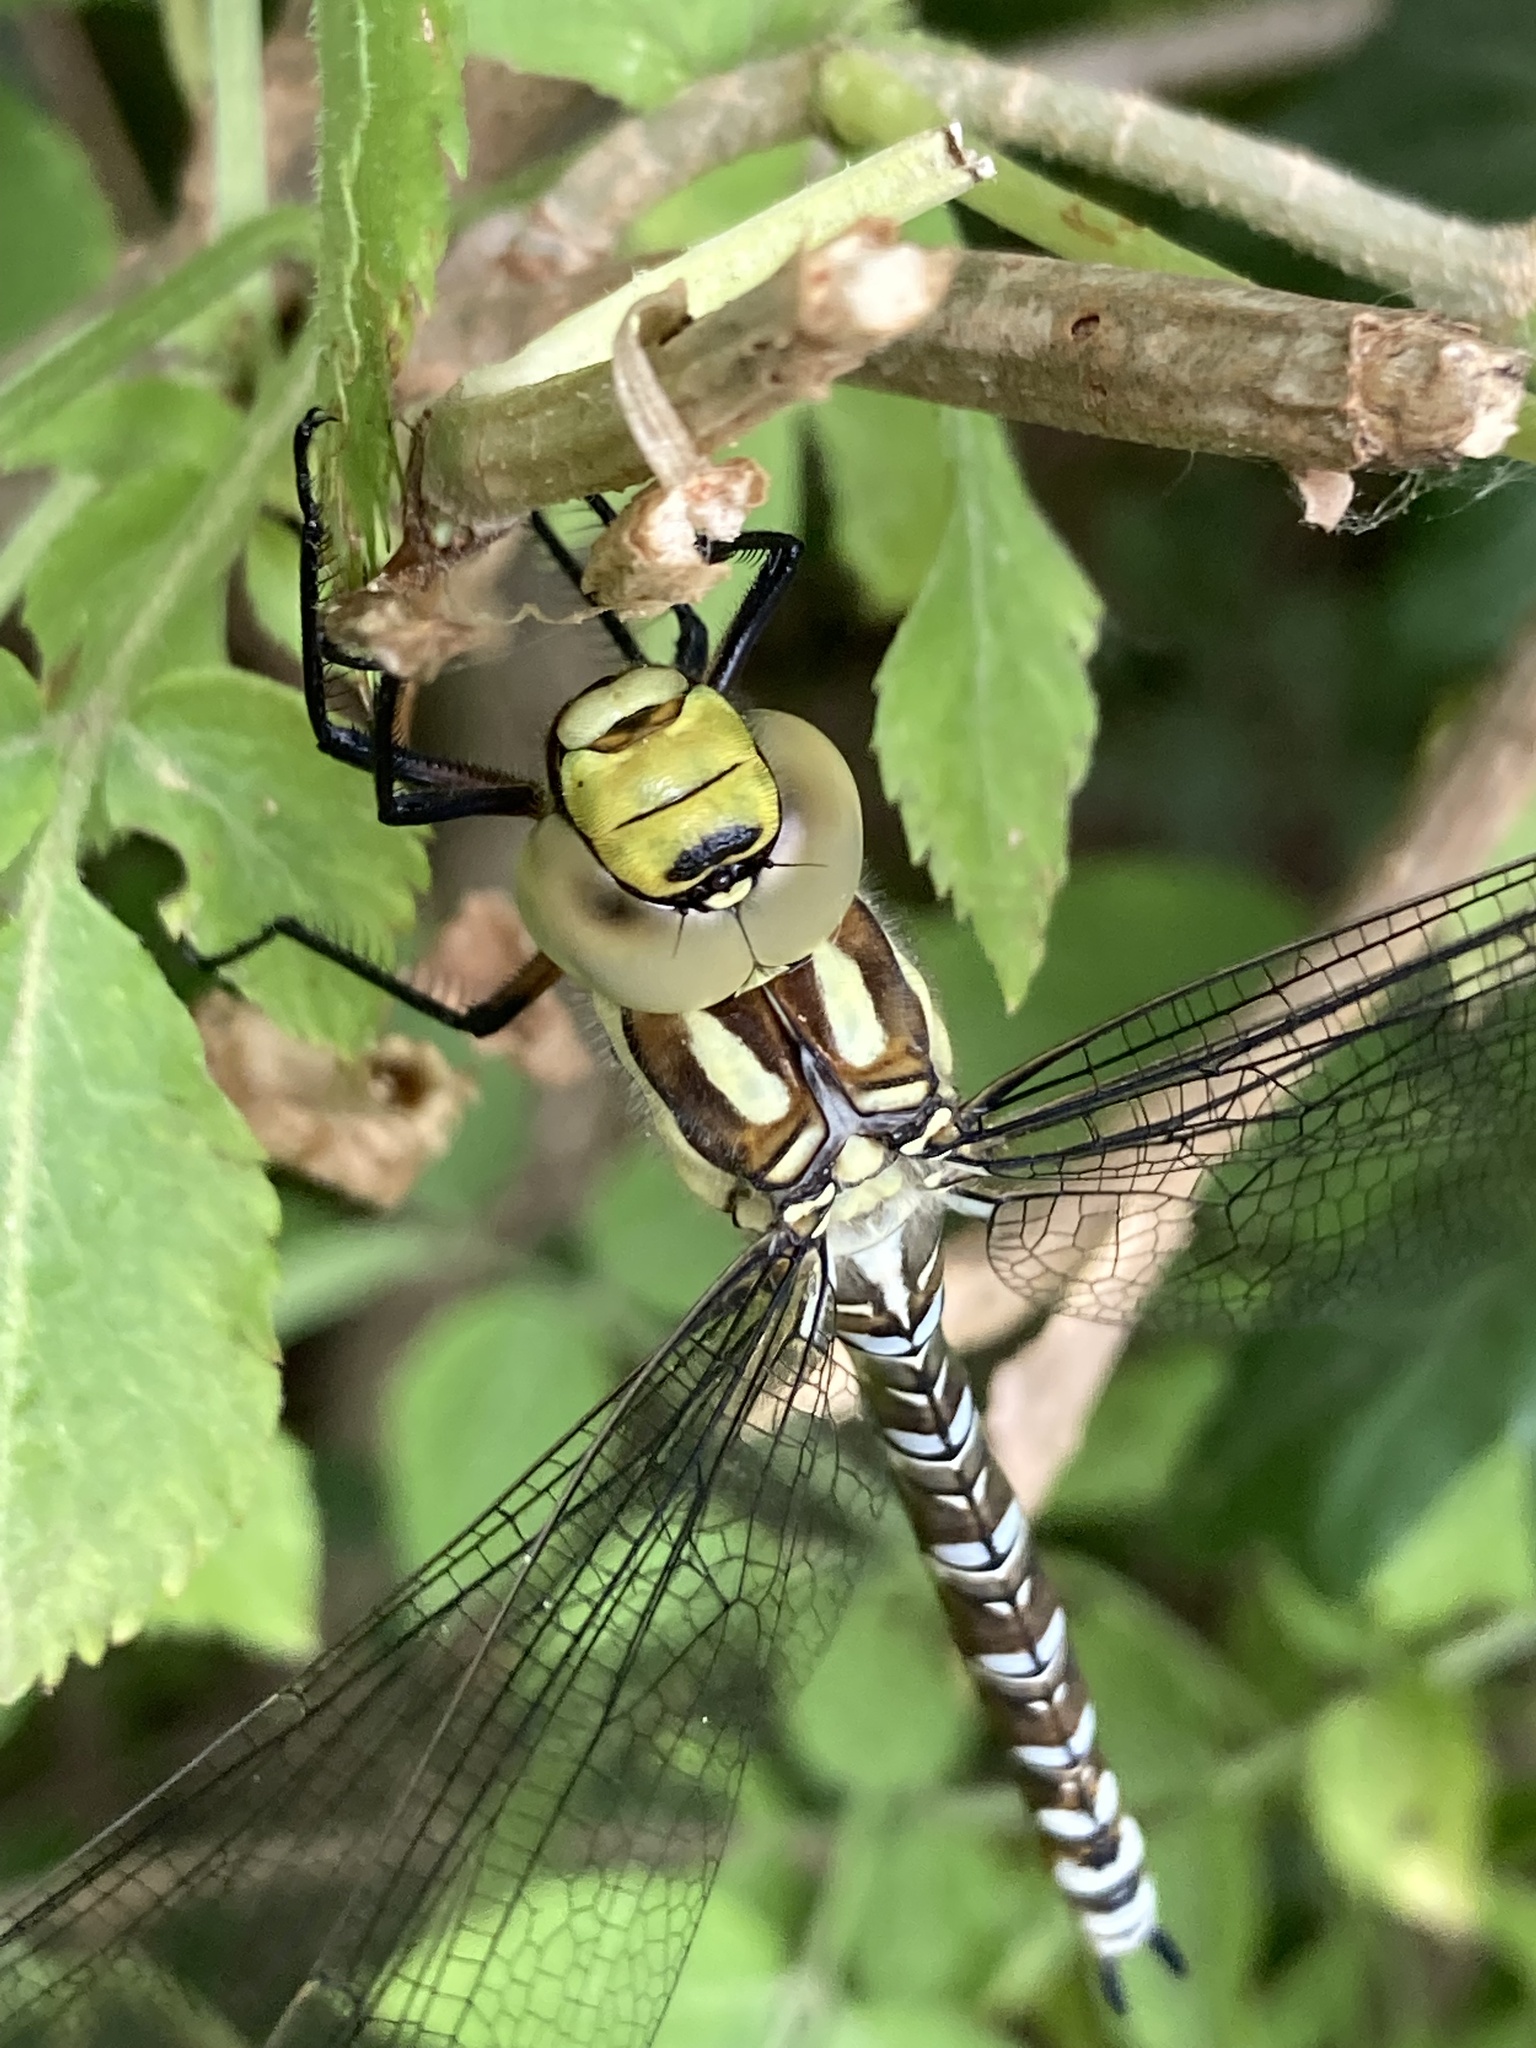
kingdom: Animalia
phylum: Arthropoda
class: Insecta
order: Odonata
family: Aeshnidae
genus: Aeshna
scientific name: Aeshna cyanea
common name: Southern hawker
